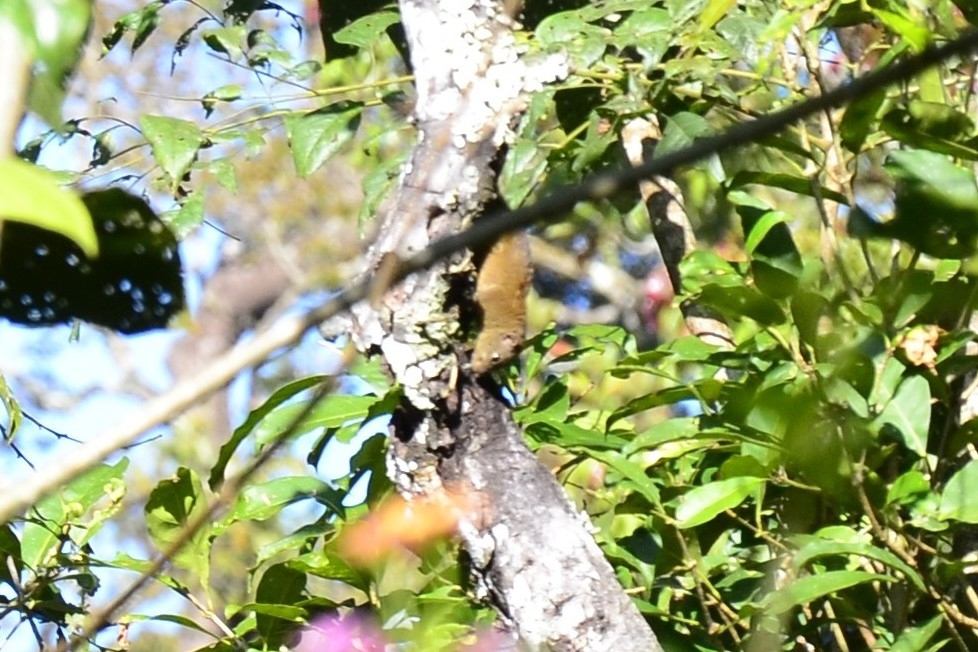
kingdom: Animalia
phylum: Chordata
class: Mammalia
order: Rodentia
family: Sciuridae
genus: Funambulus
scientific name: Funambulus sublineatus
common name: Dusky palm squirrel
